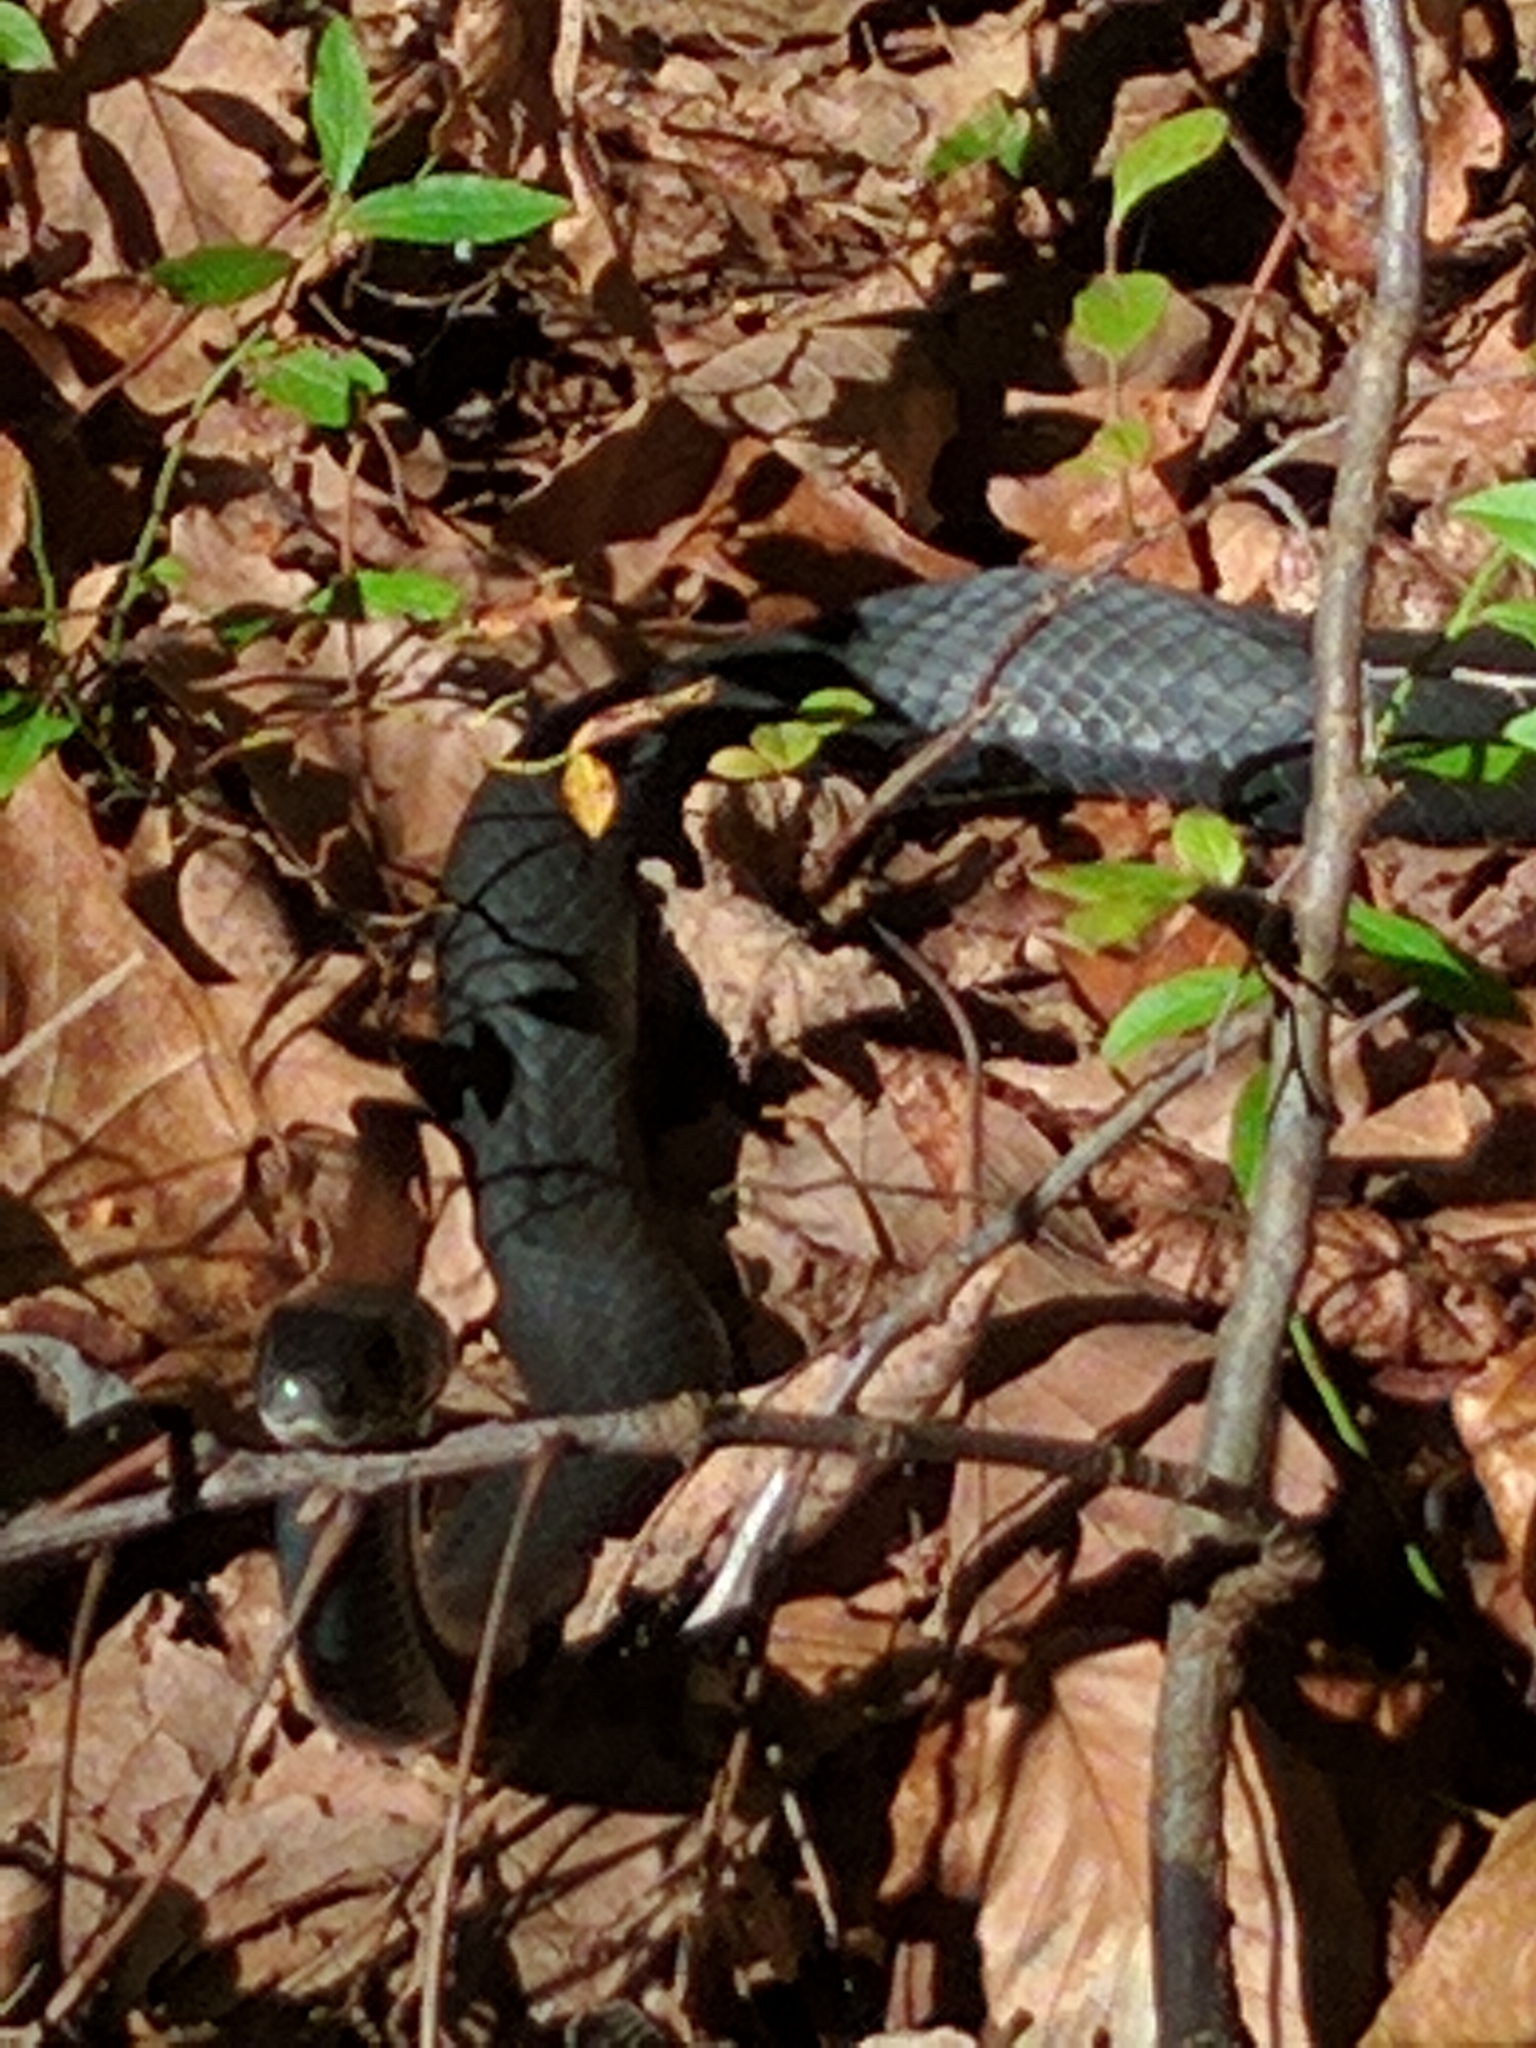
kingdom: Animalia
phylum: Chordata
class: Squamata
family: Colubridae
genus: Coluber
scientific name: Coluber constrictor
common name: Eastern racer
